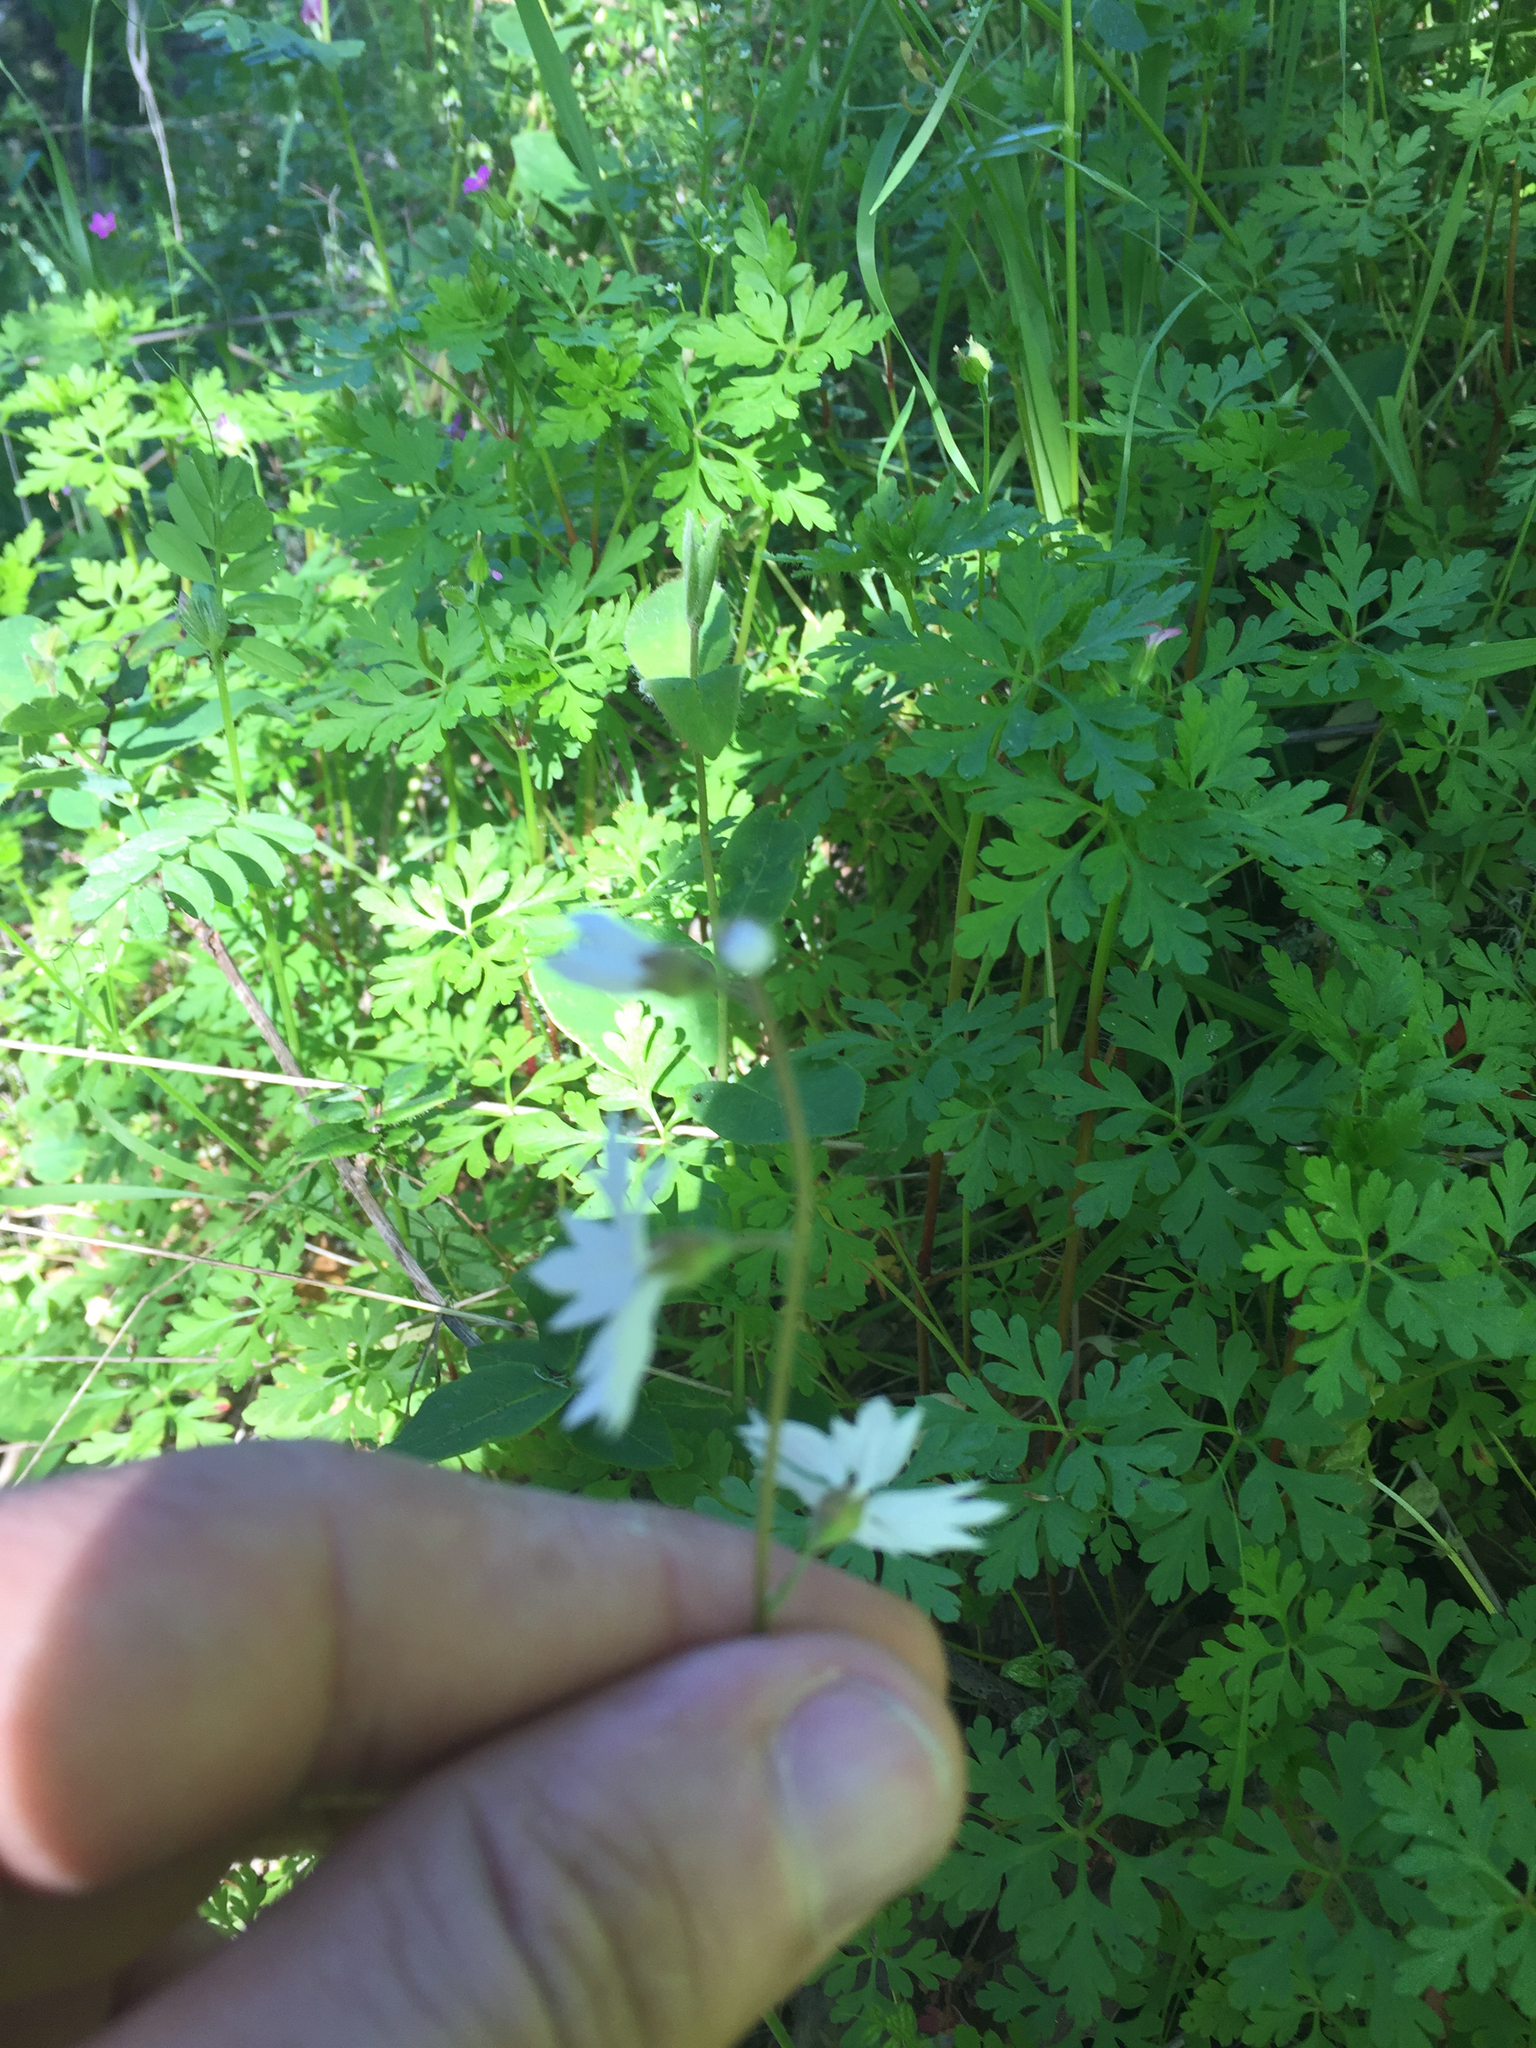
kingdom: Plantae
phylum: Tracheophyta
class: Magnoliopsida
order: Saxifragales
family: Saxifragaceae
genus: Lithophragma
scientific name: Lithophragma affine
